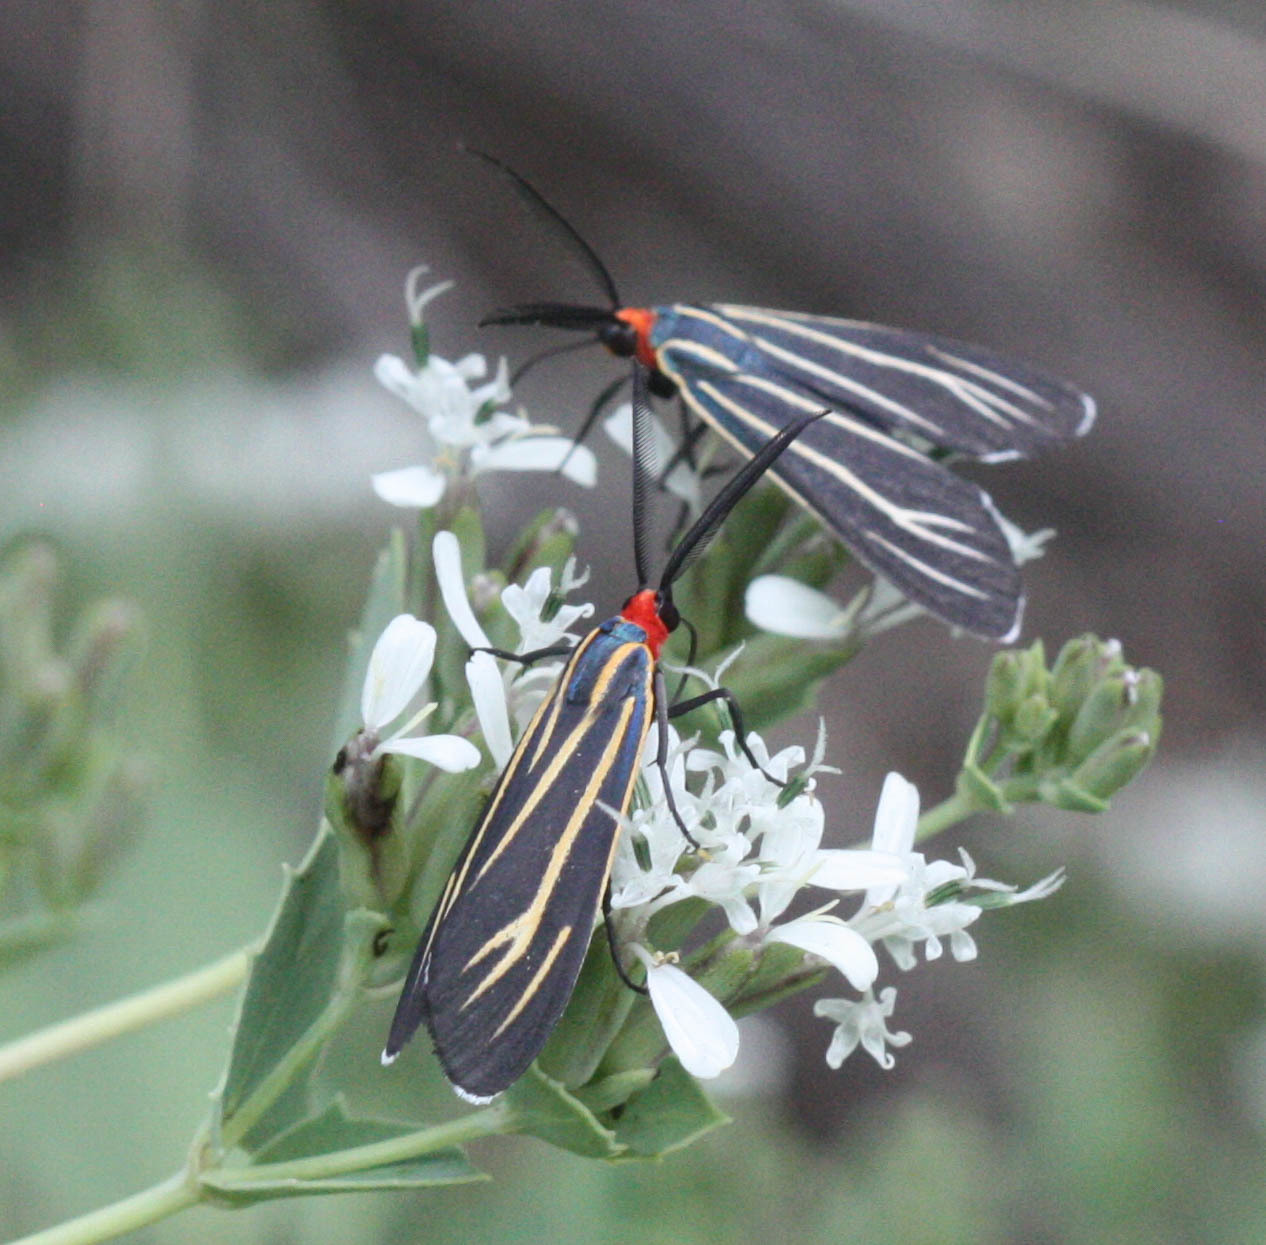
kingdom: Animalia
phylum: Arthropoda
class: Insecta
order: Lepidoptera
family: Erebidae
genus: Ctenucha
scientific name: Ctenucha venosa
